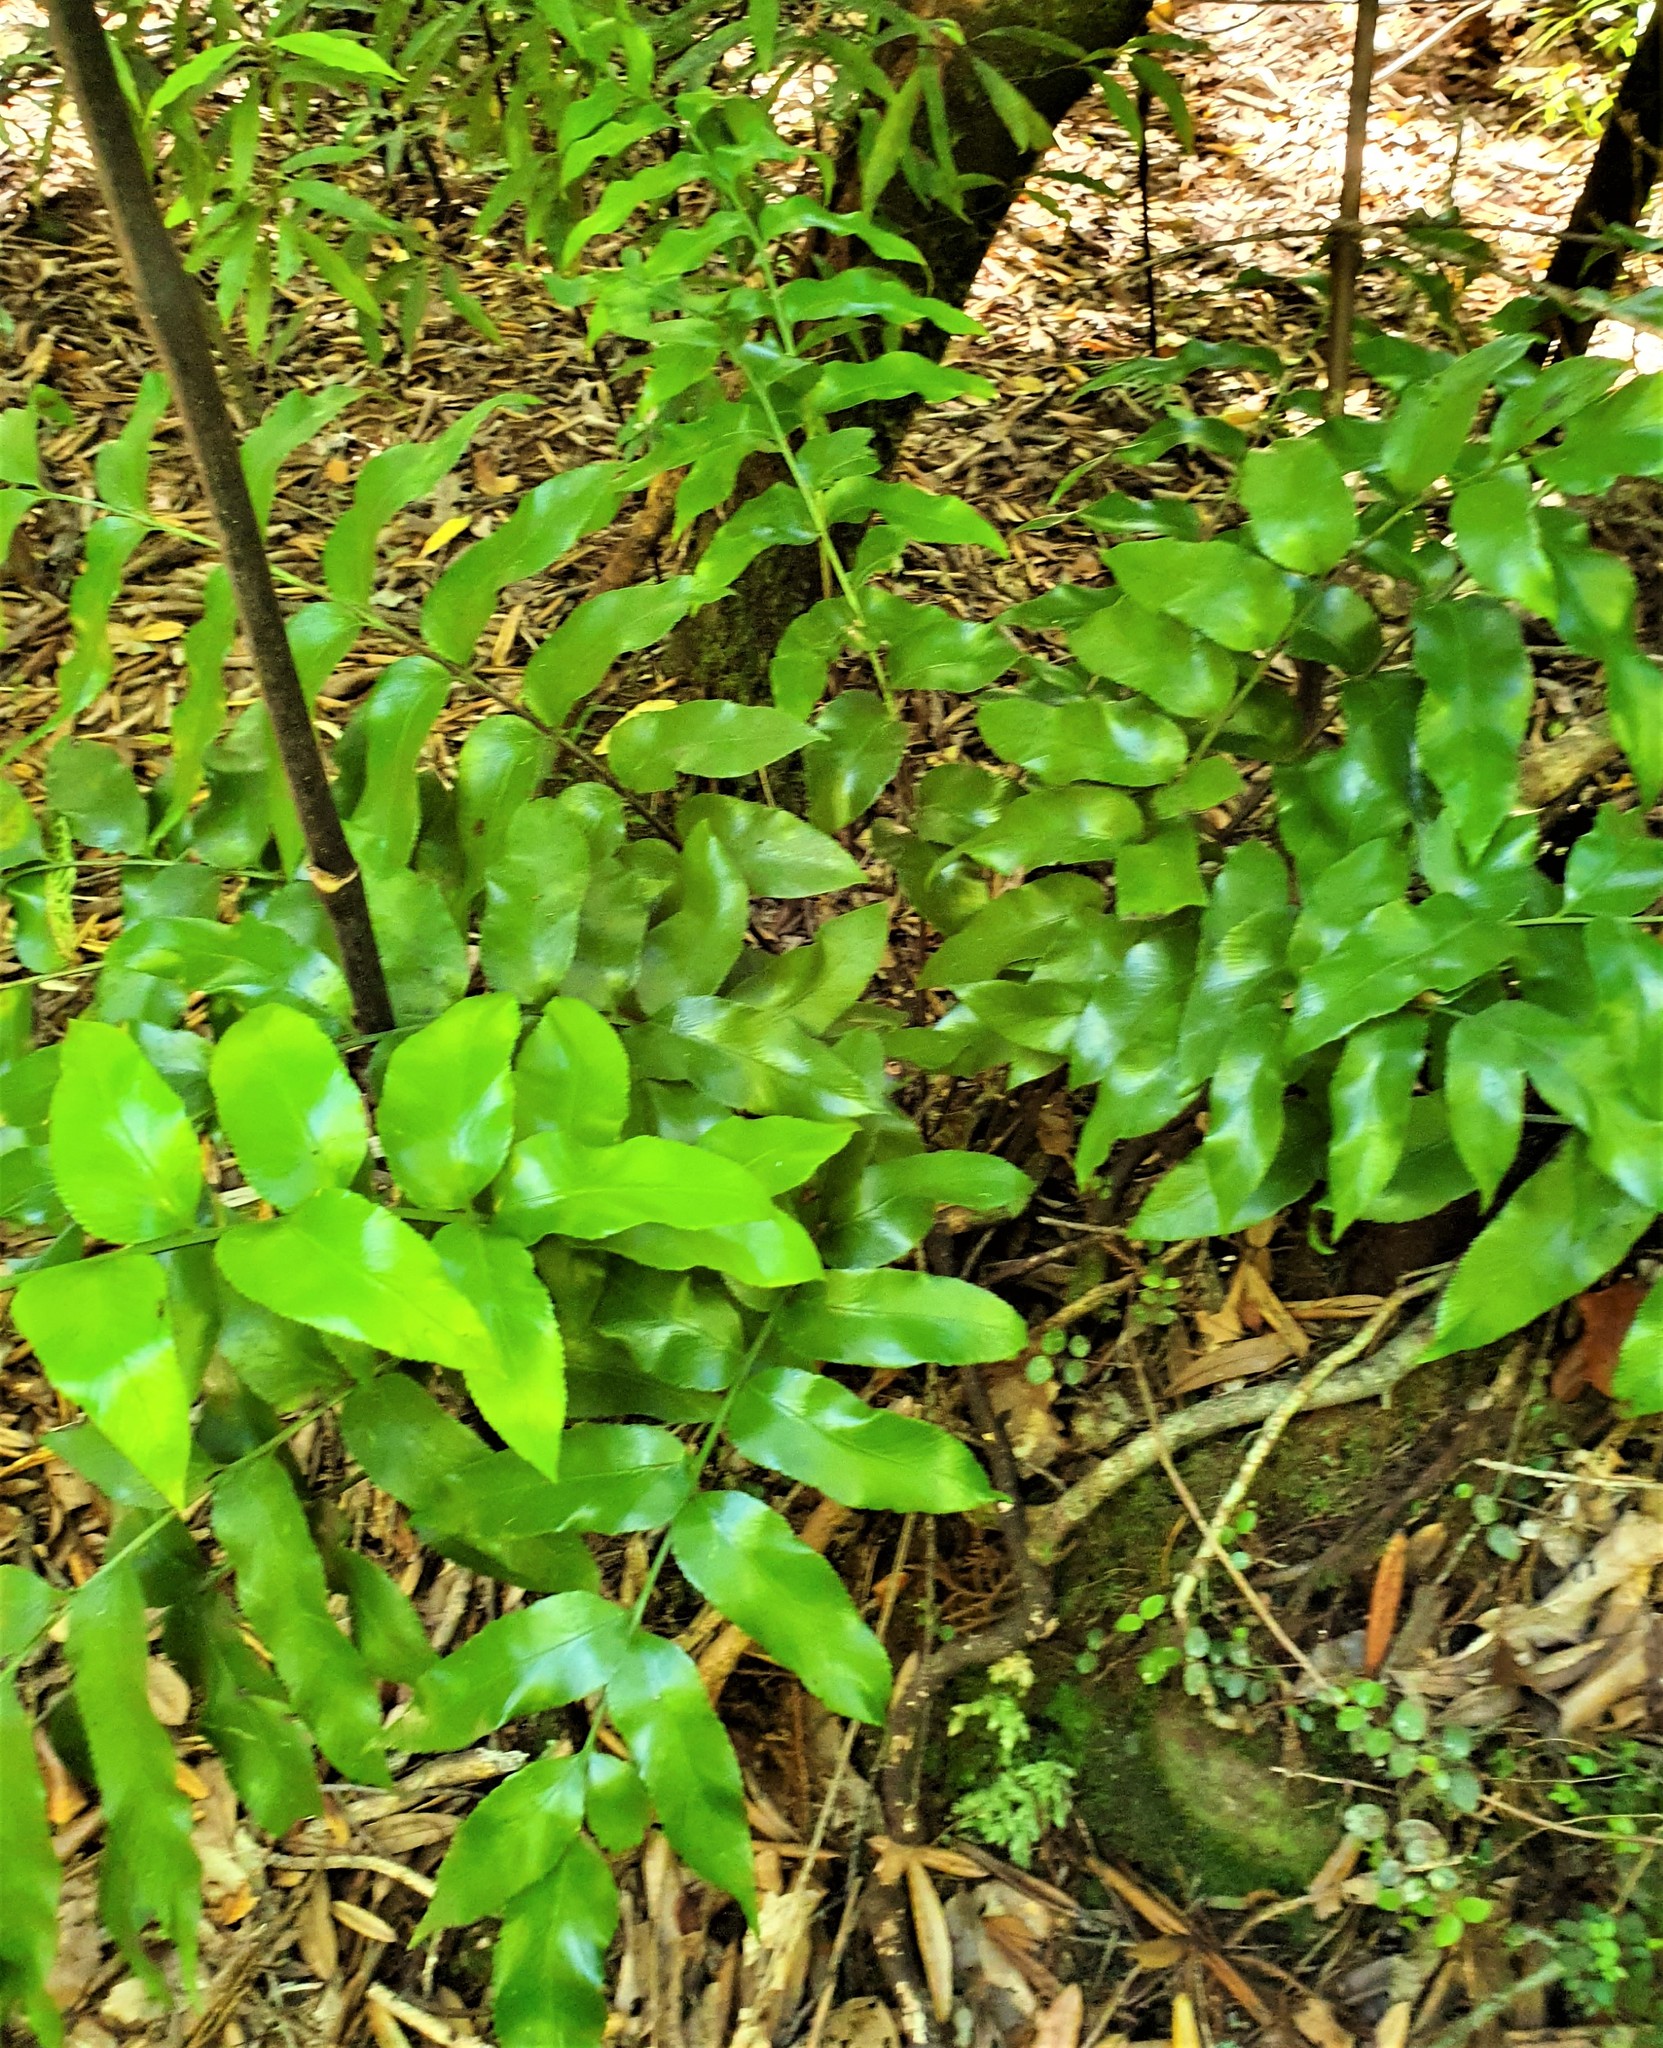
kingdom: Plantae
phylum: Tracheophyta
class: Polypodiopsida
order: Polypodiales
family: Aspleniaceae
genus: Asplenium
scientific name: Asplenium oblongifolium
